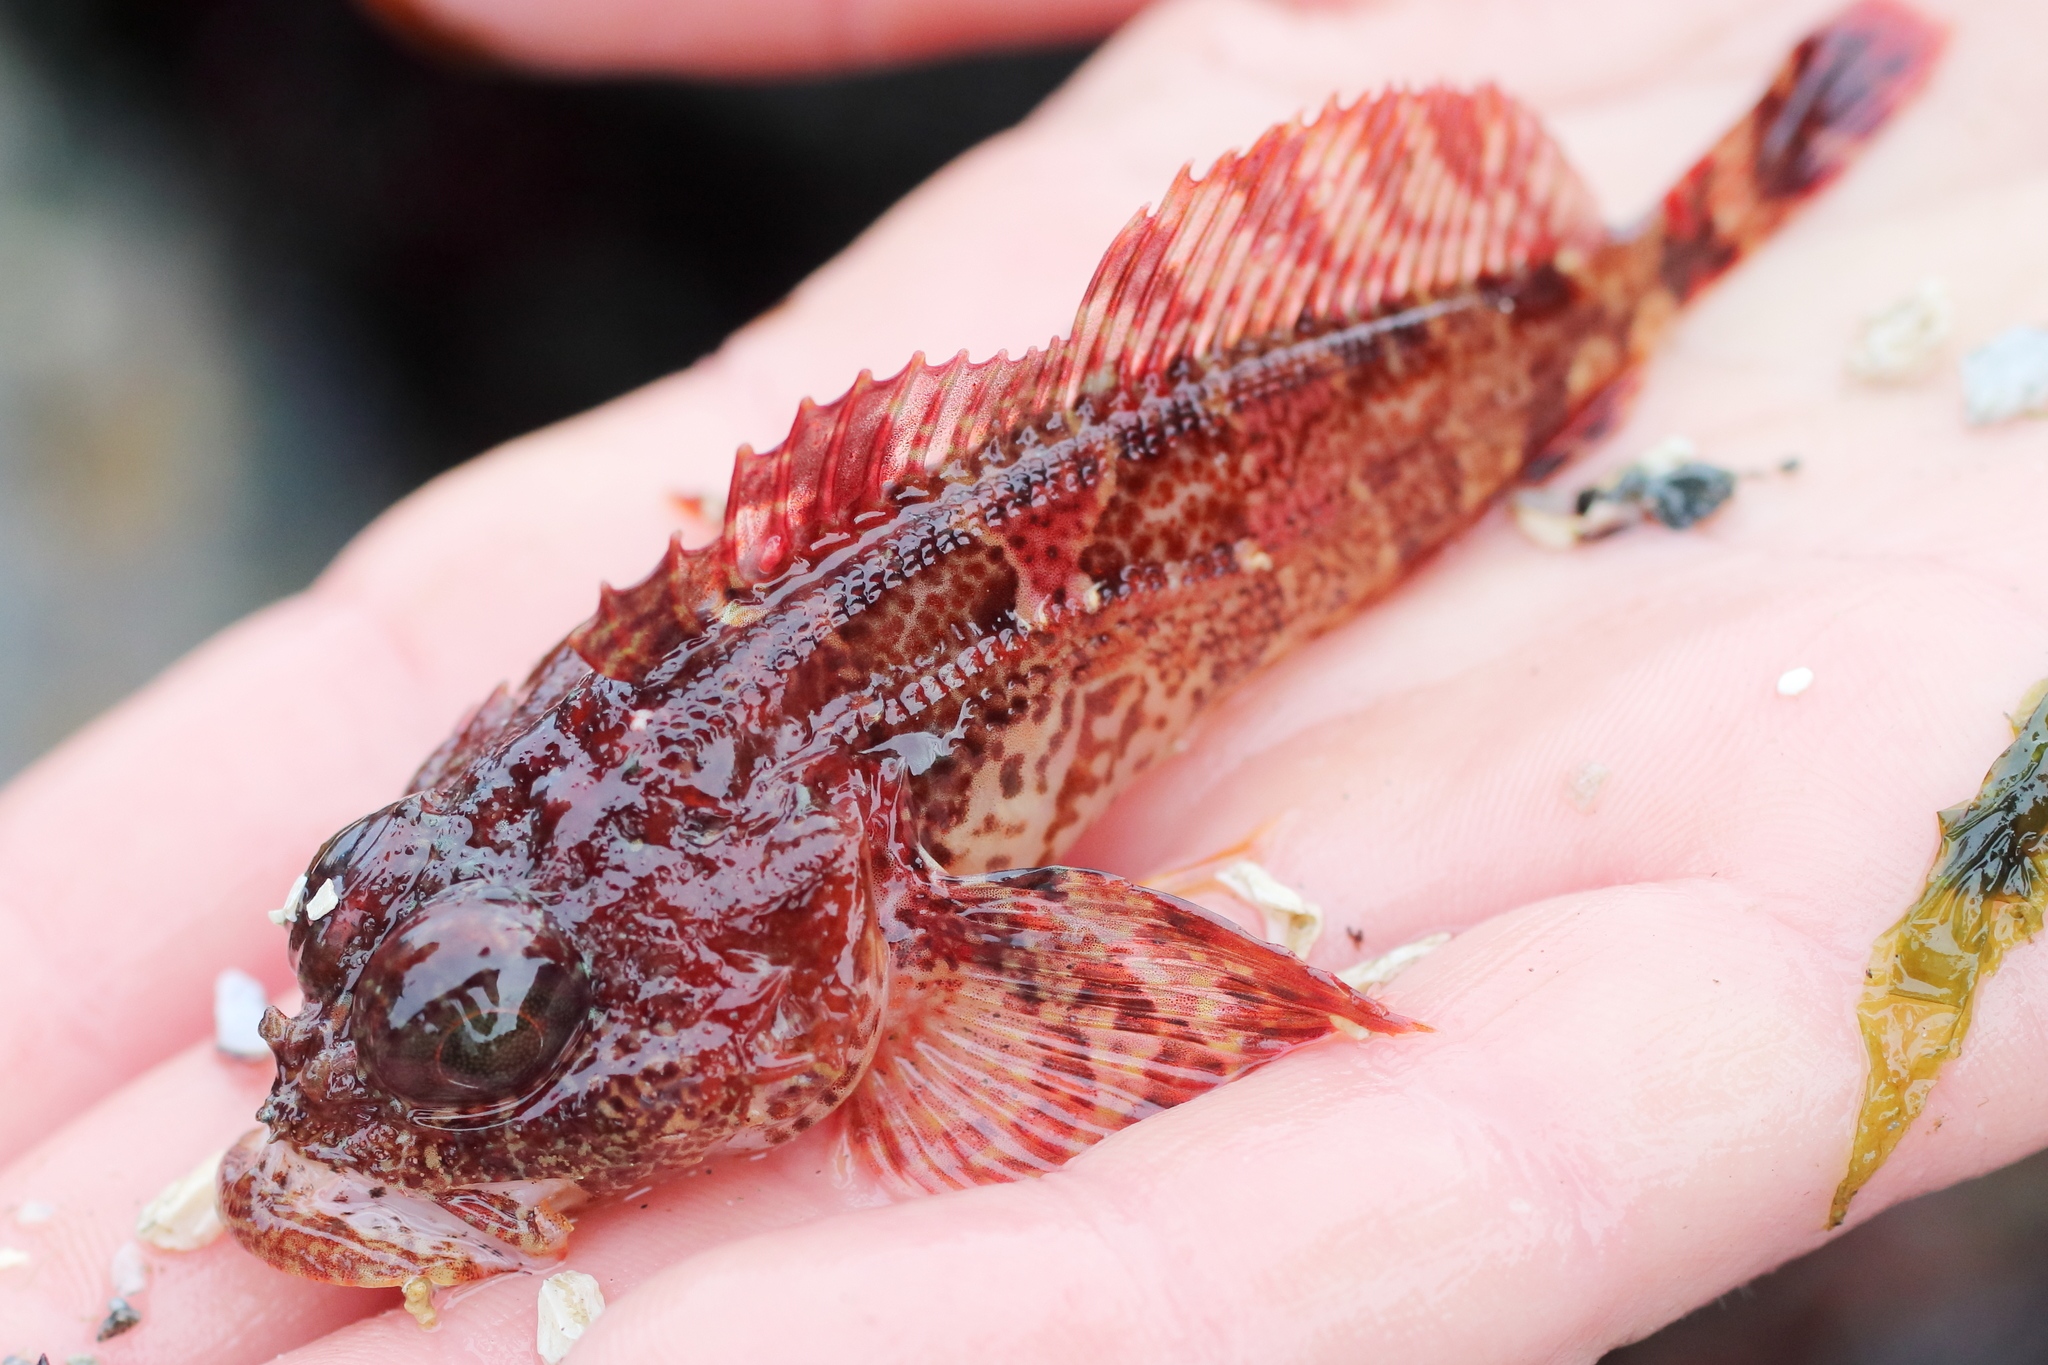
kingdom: Animalia
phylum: Chordata
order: Scorpaeniformes
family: Cottidae
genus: Hemilepidotus
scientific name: Hemilepidotus hemilepidotus
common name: Red irish lord
